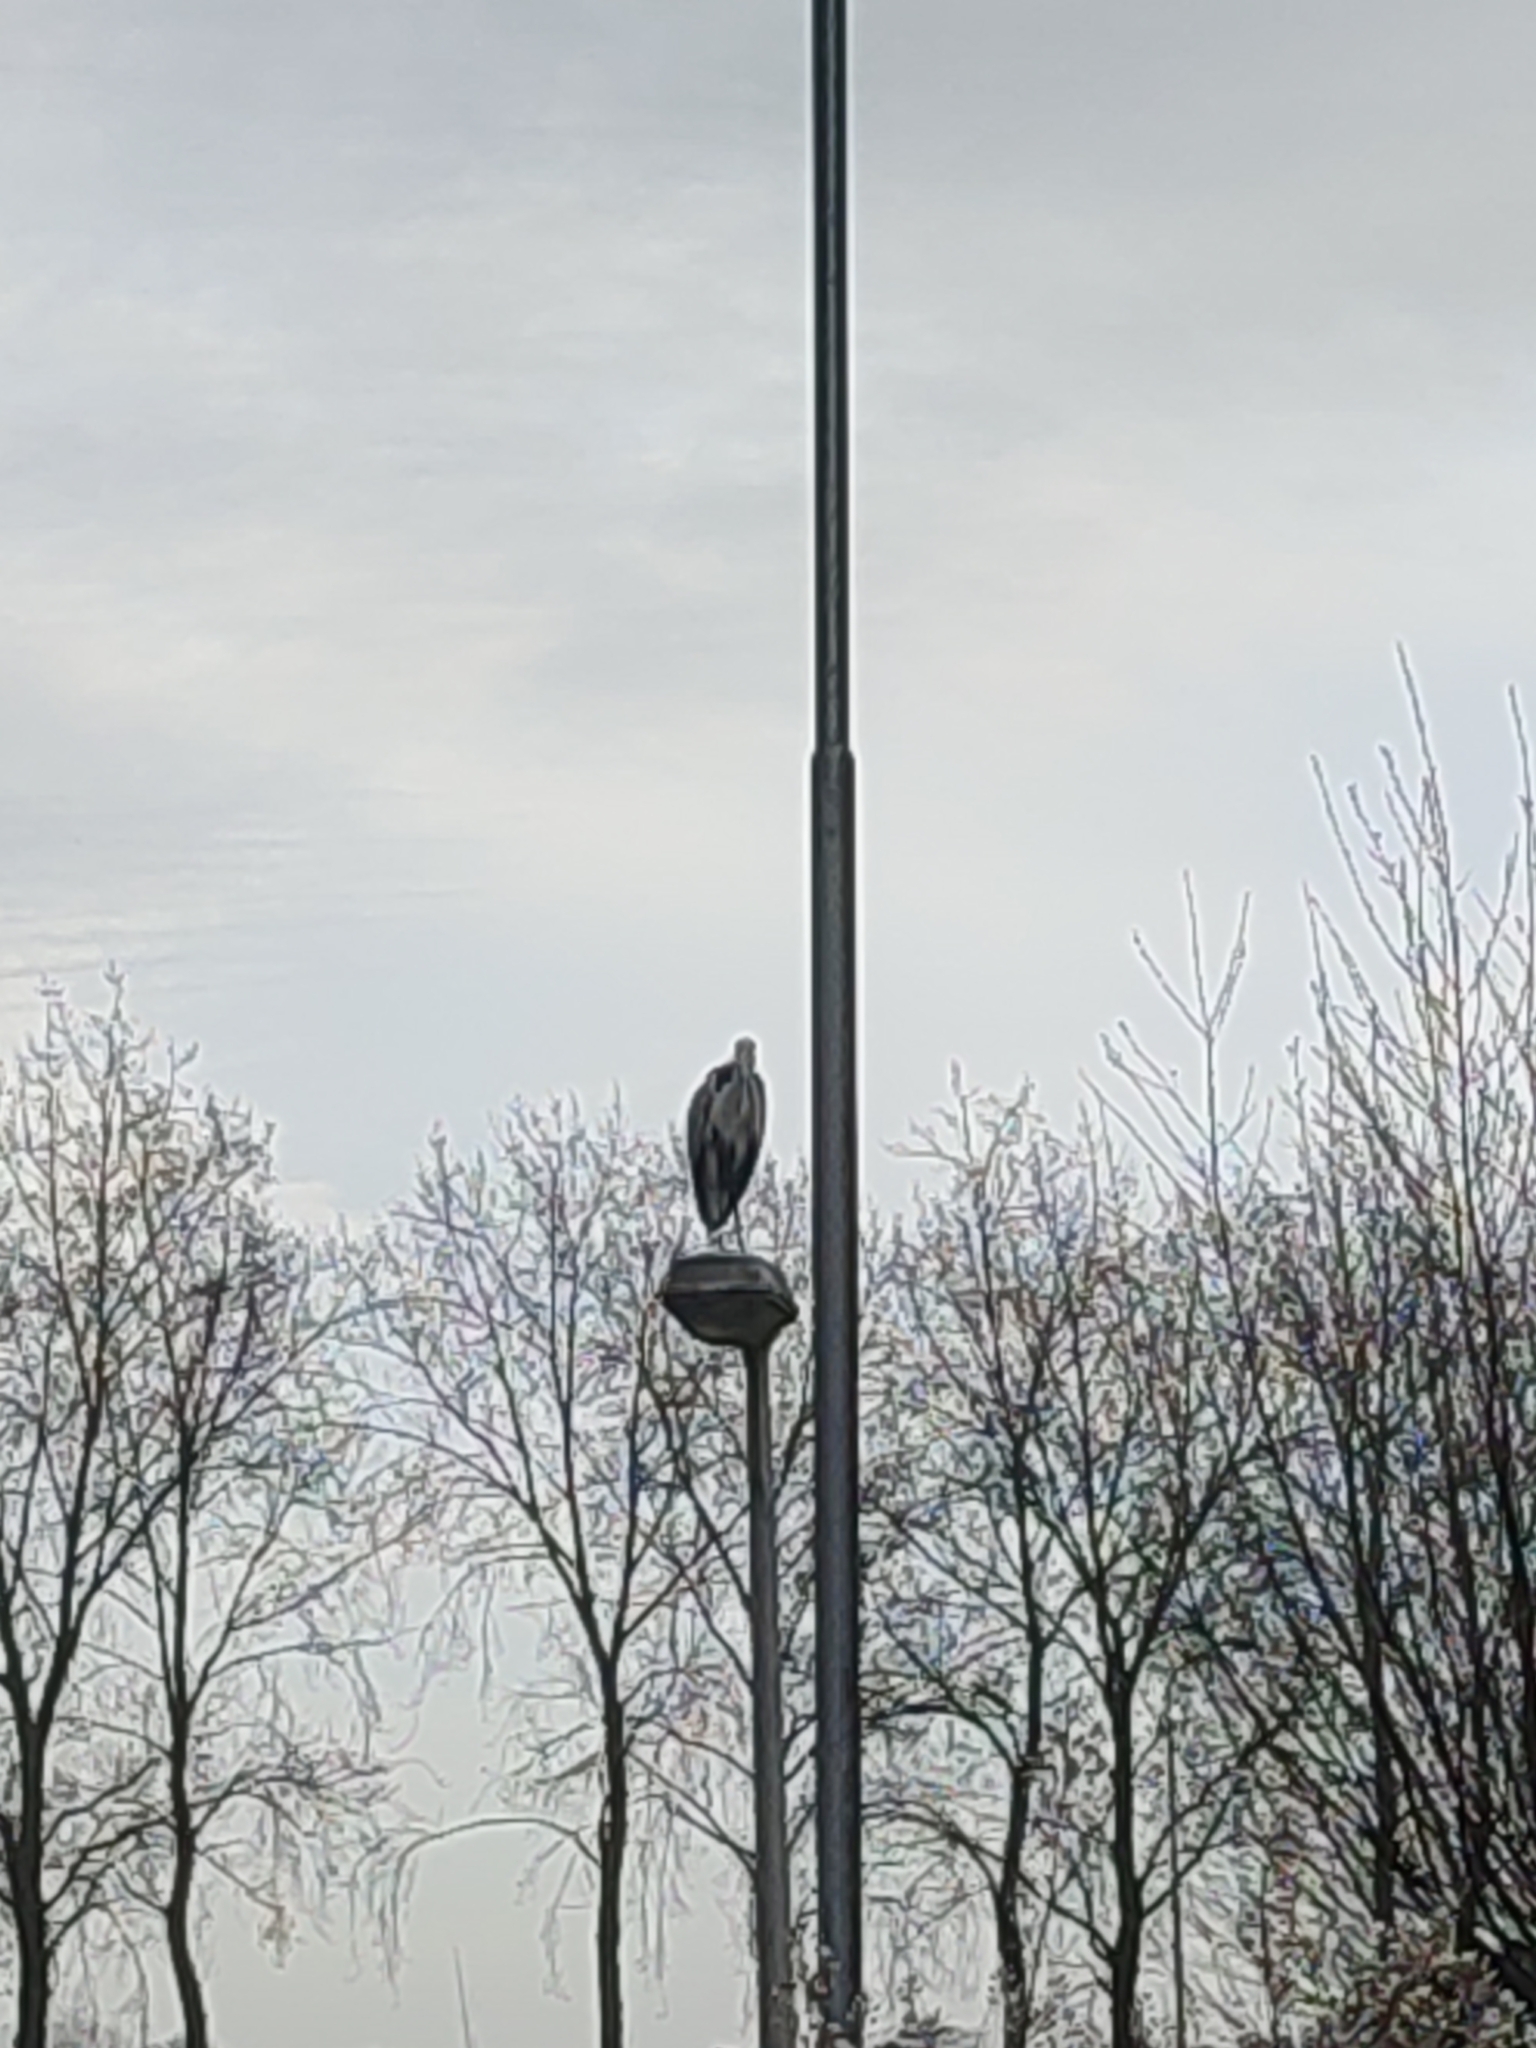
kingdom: Animalia
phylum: Chordata
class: Aves
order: Pelecaniformes
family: Ardeidae
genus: Ardea
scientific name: Ardea cinerea
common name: Grey heron
